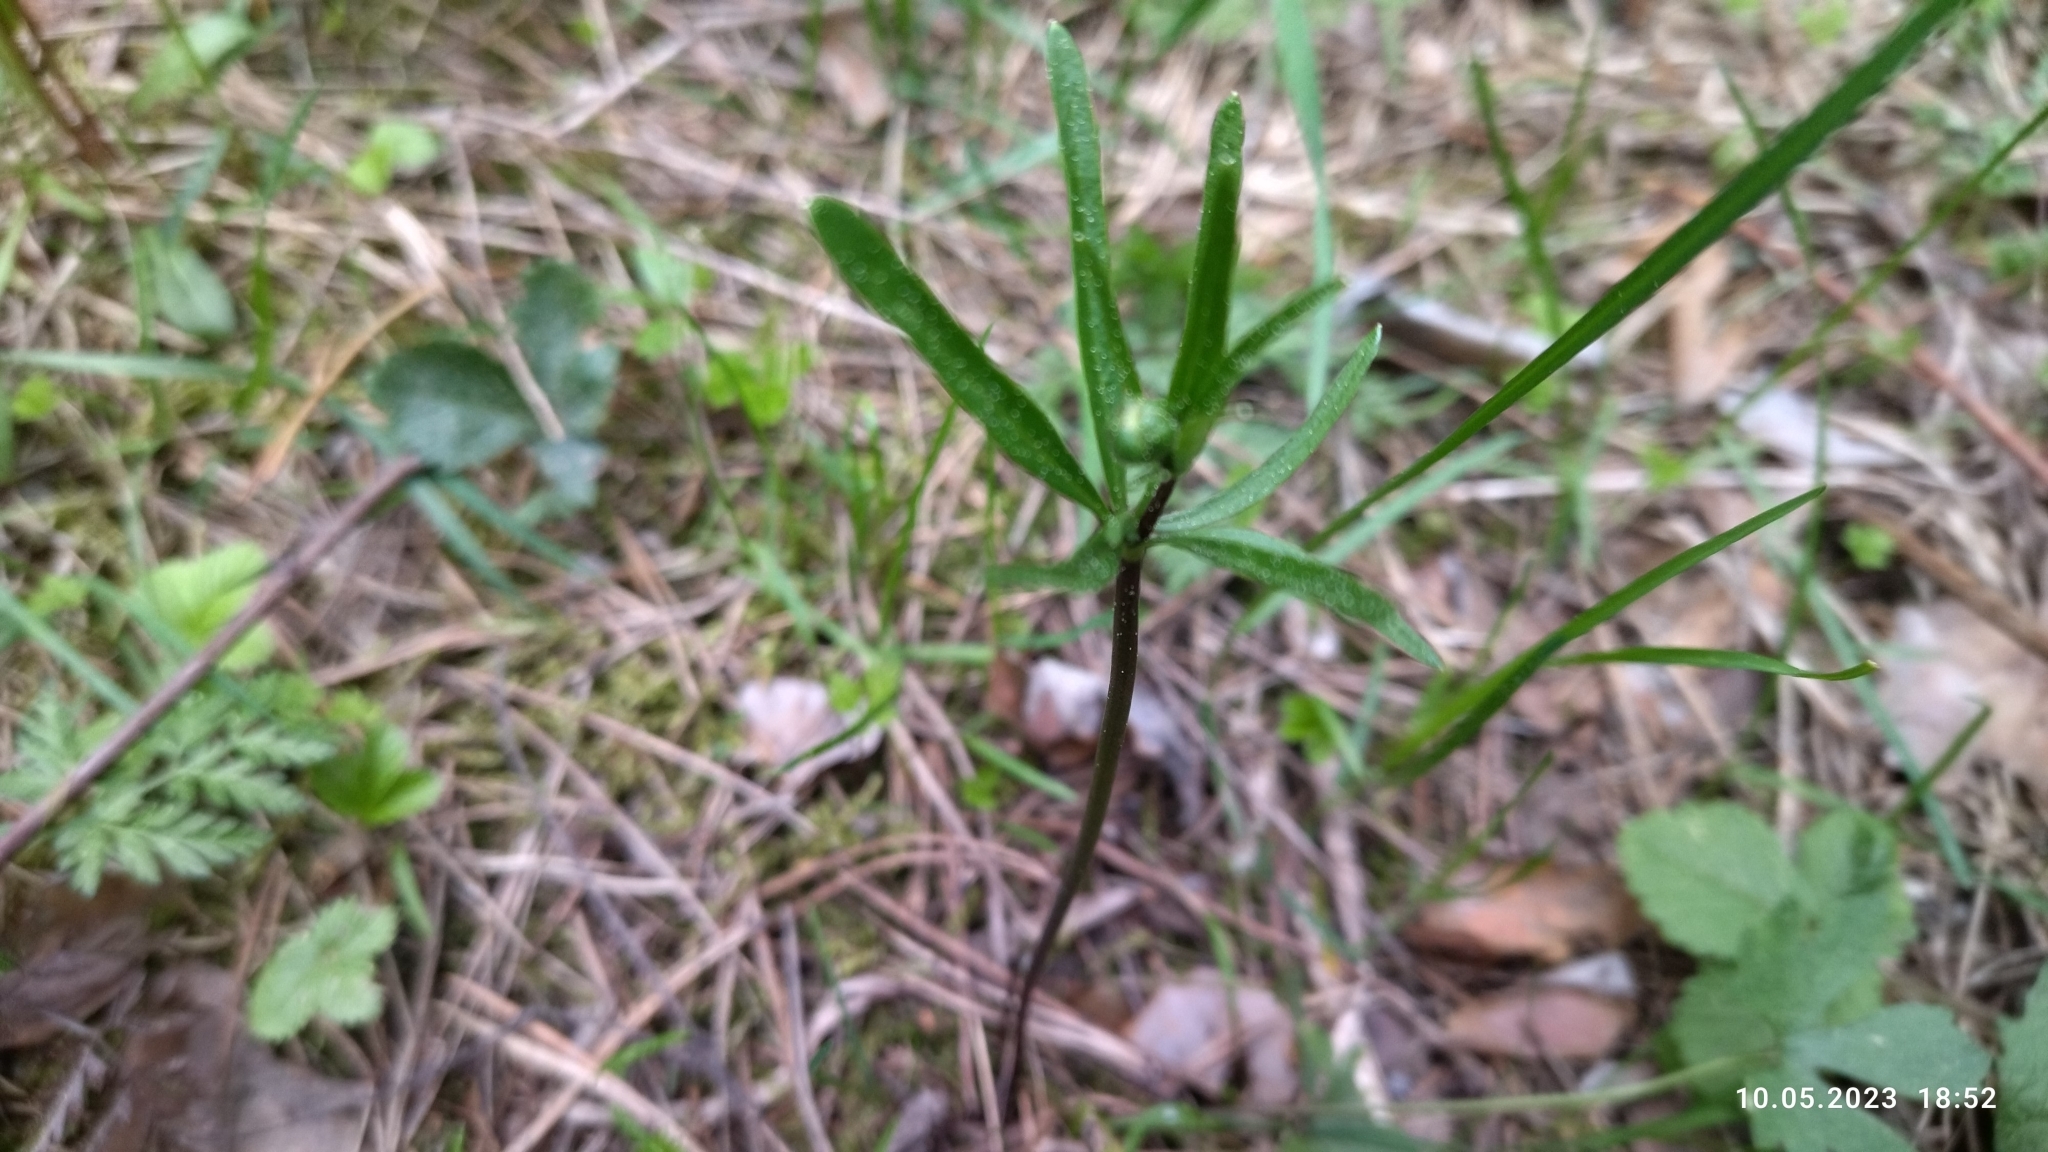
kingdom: Plantae
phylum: Tracheophyta
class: Magnoliopsida
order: Ranunculales
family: Ranunculaceae
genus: Ranunculus
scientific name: Ranunculus auricomus
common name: Goldilocks buttercup
